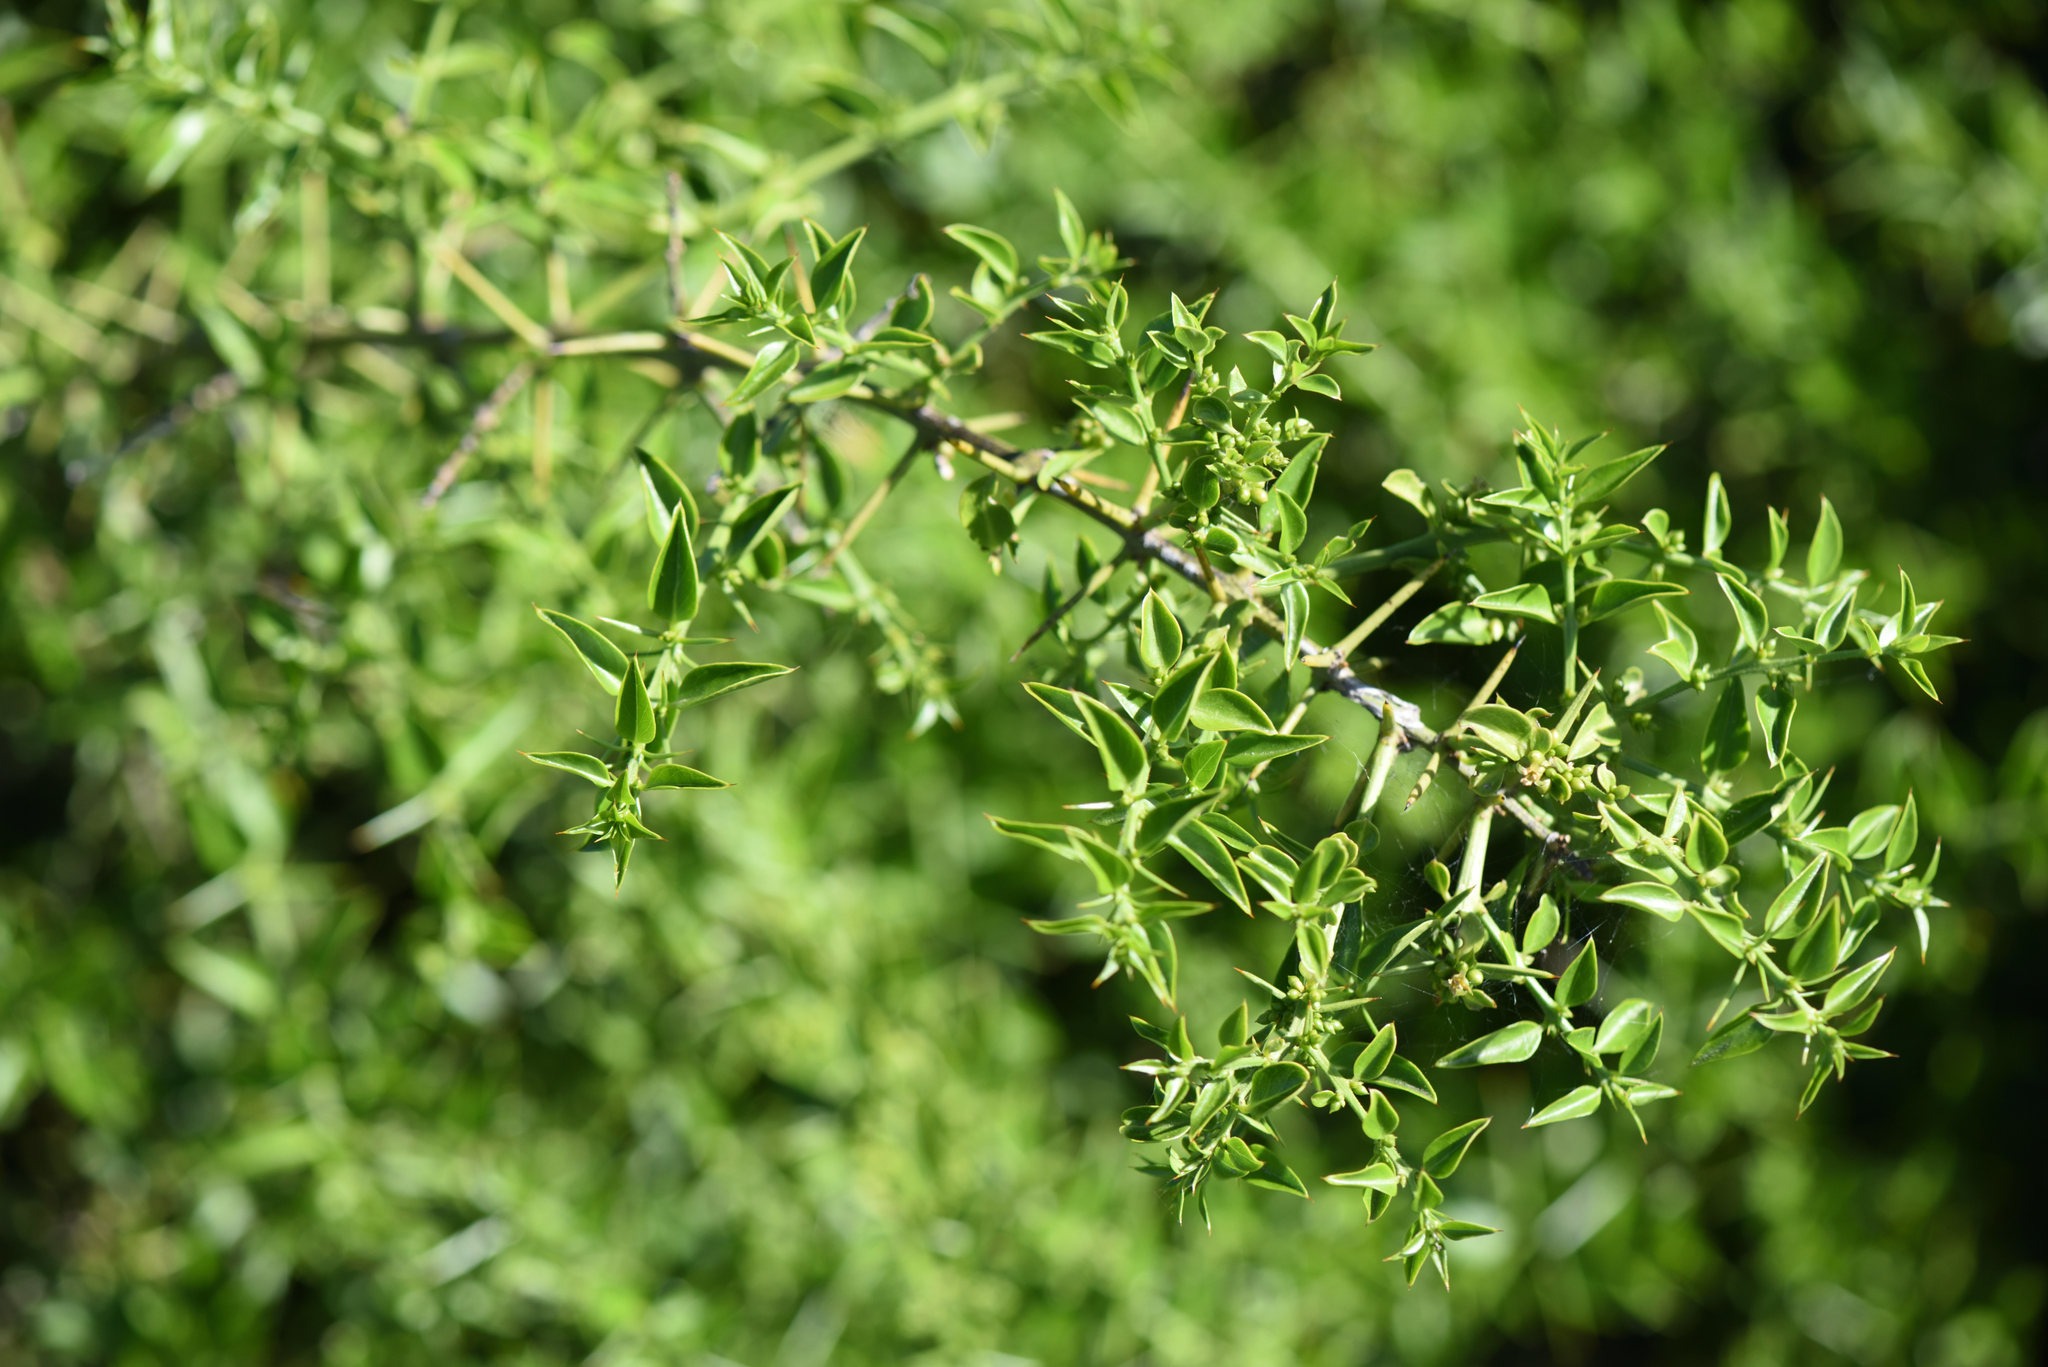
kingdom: Plantae
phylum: Tracheophyta
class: Magnoliopsida
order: Brassicales
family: Salvadoraceae
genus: Azima
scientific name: Azima tetracantha
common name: Needle bush
